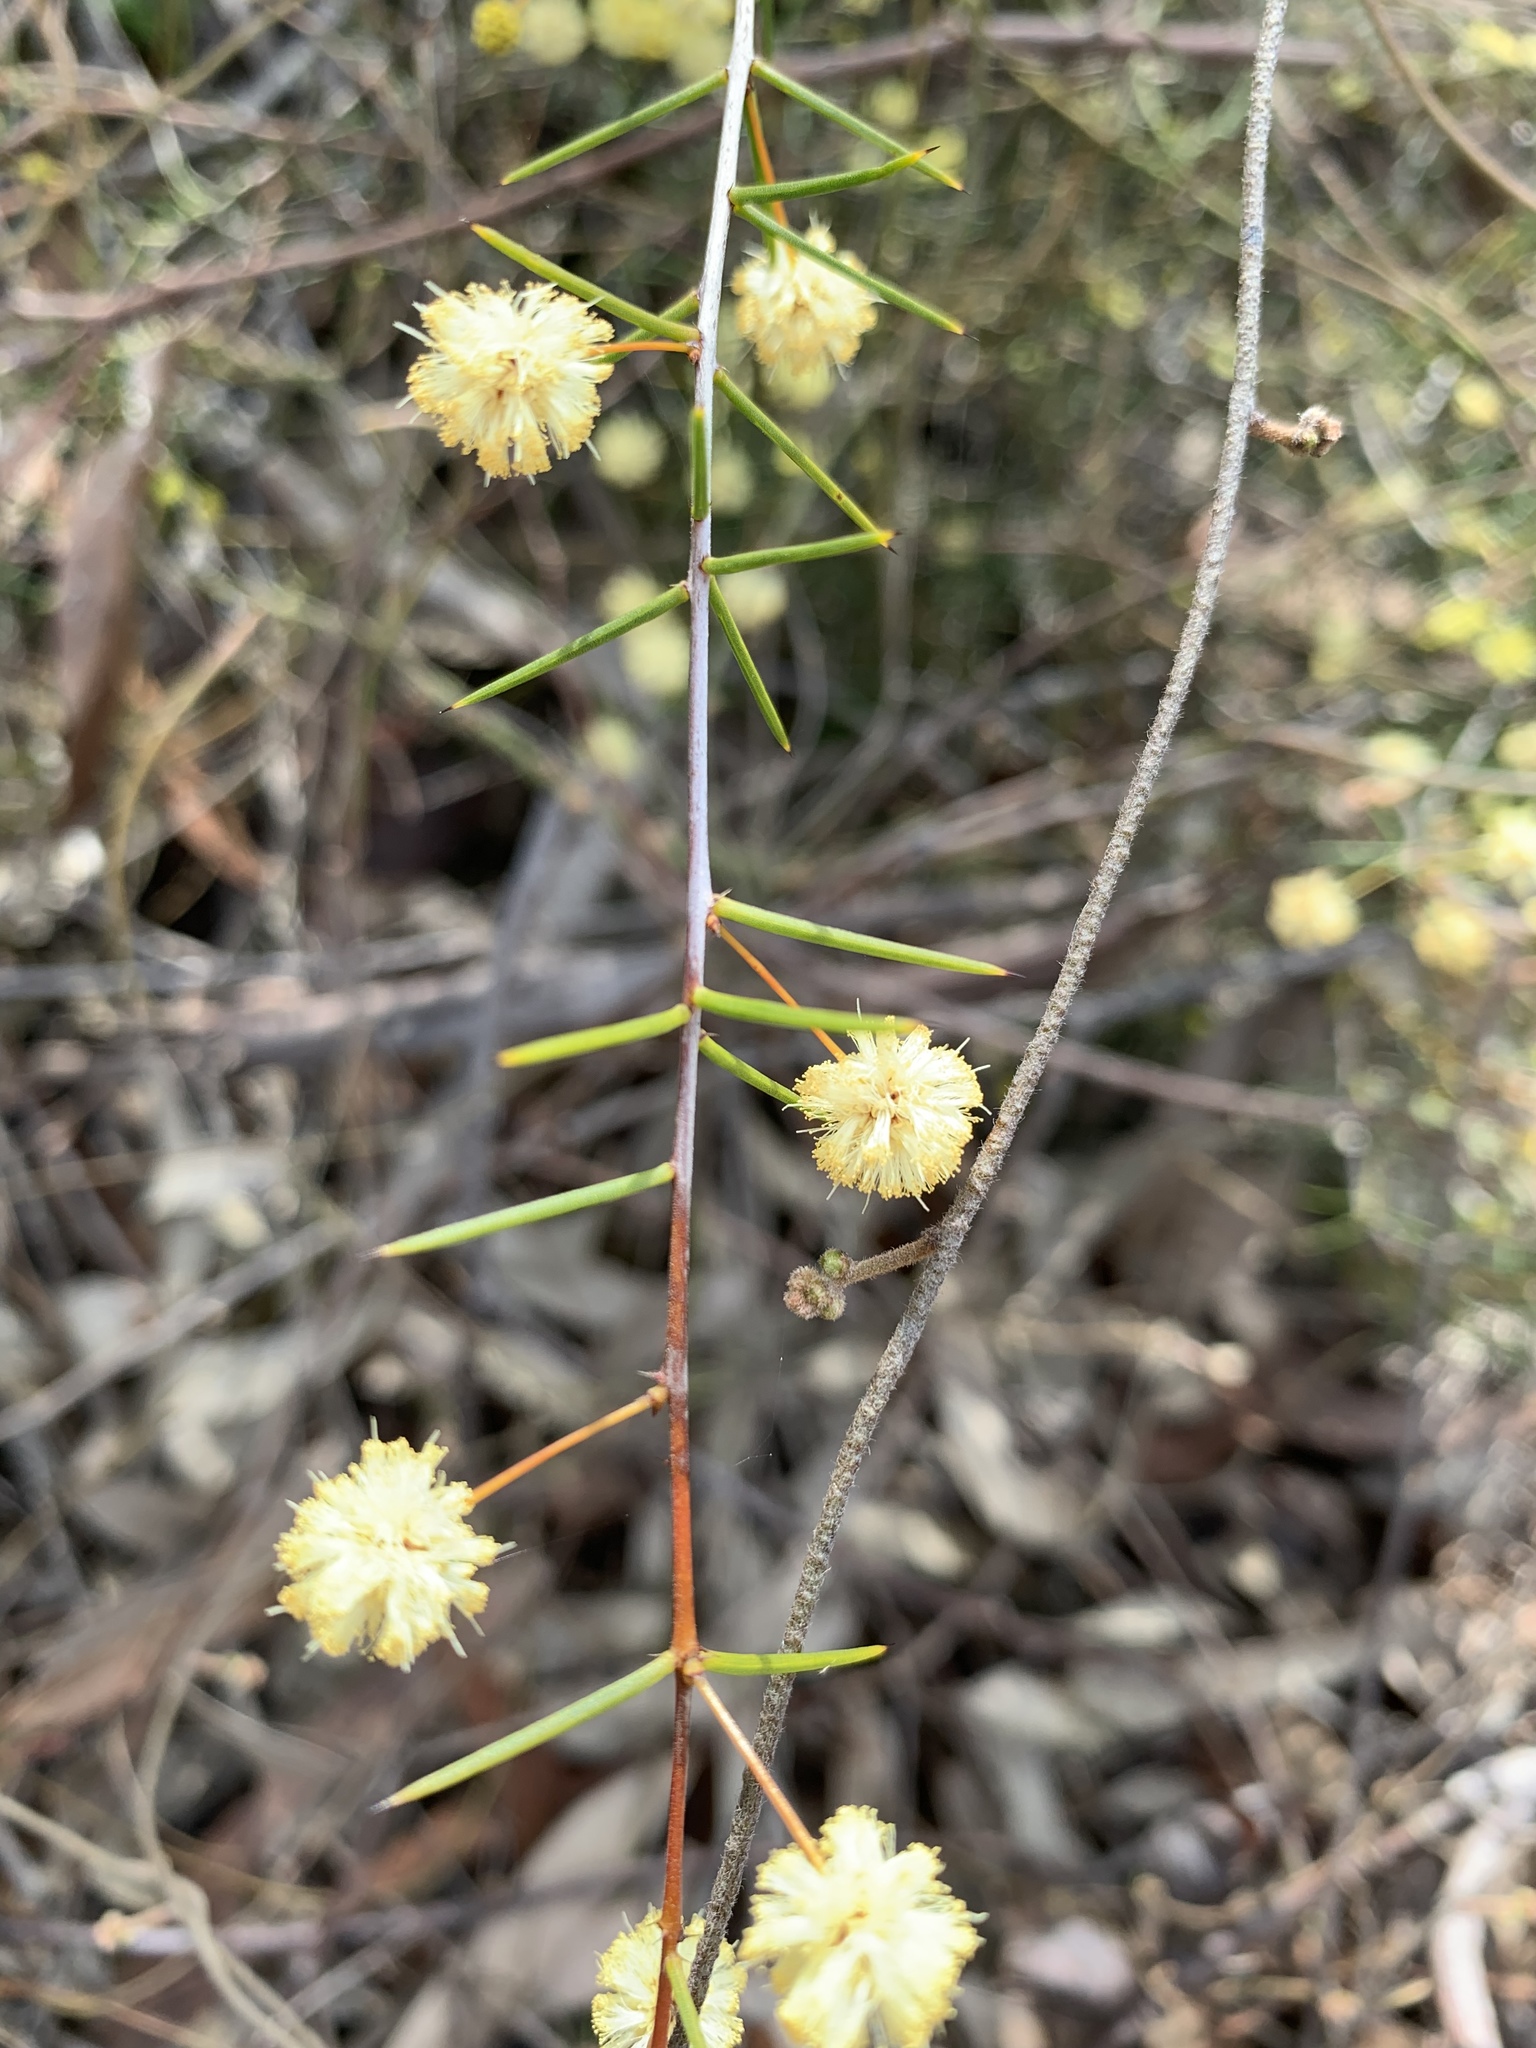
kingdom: Plantae
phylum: Tracheophyta
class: Magnoliopsida
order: Fabales
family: Fabaceae
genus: Acacia
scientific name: Acacia brownii
